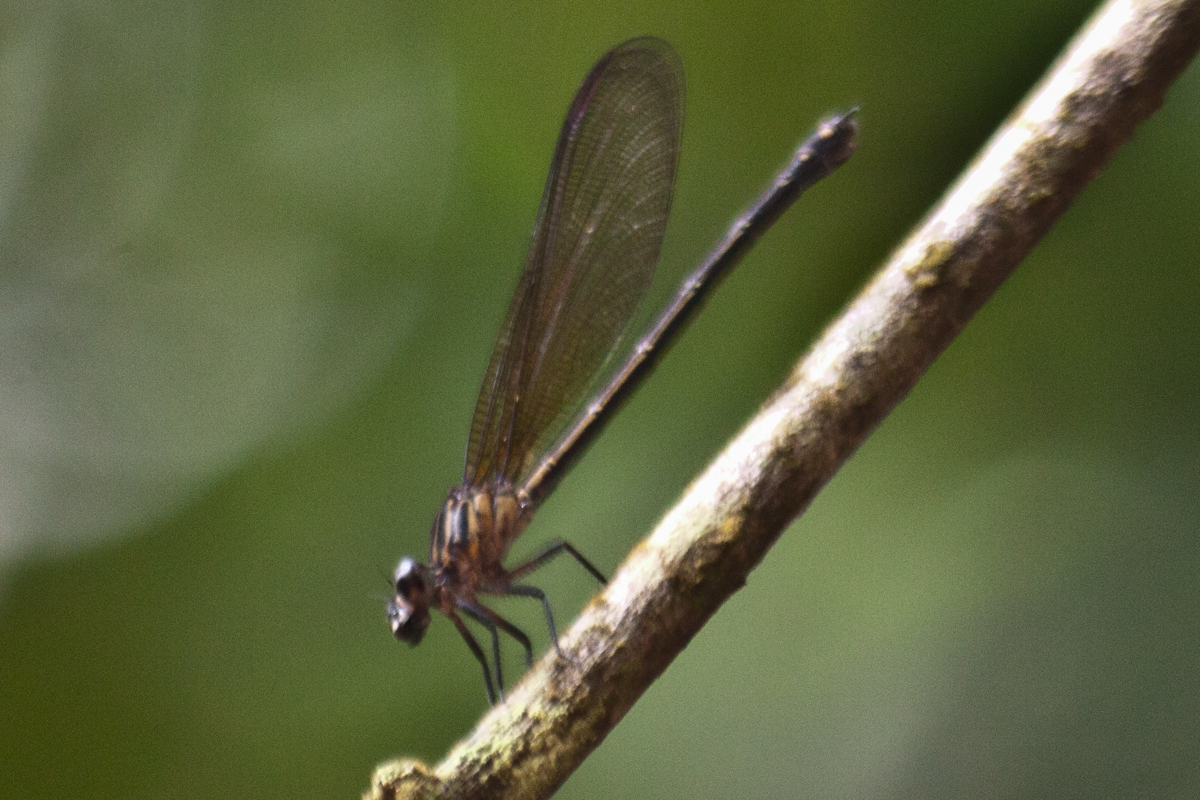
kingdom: Animalia
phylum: Arthropoda
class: Insecta
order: Odonata
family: Euphaeidae
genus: Euphaea
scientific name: Euphaea masoni
